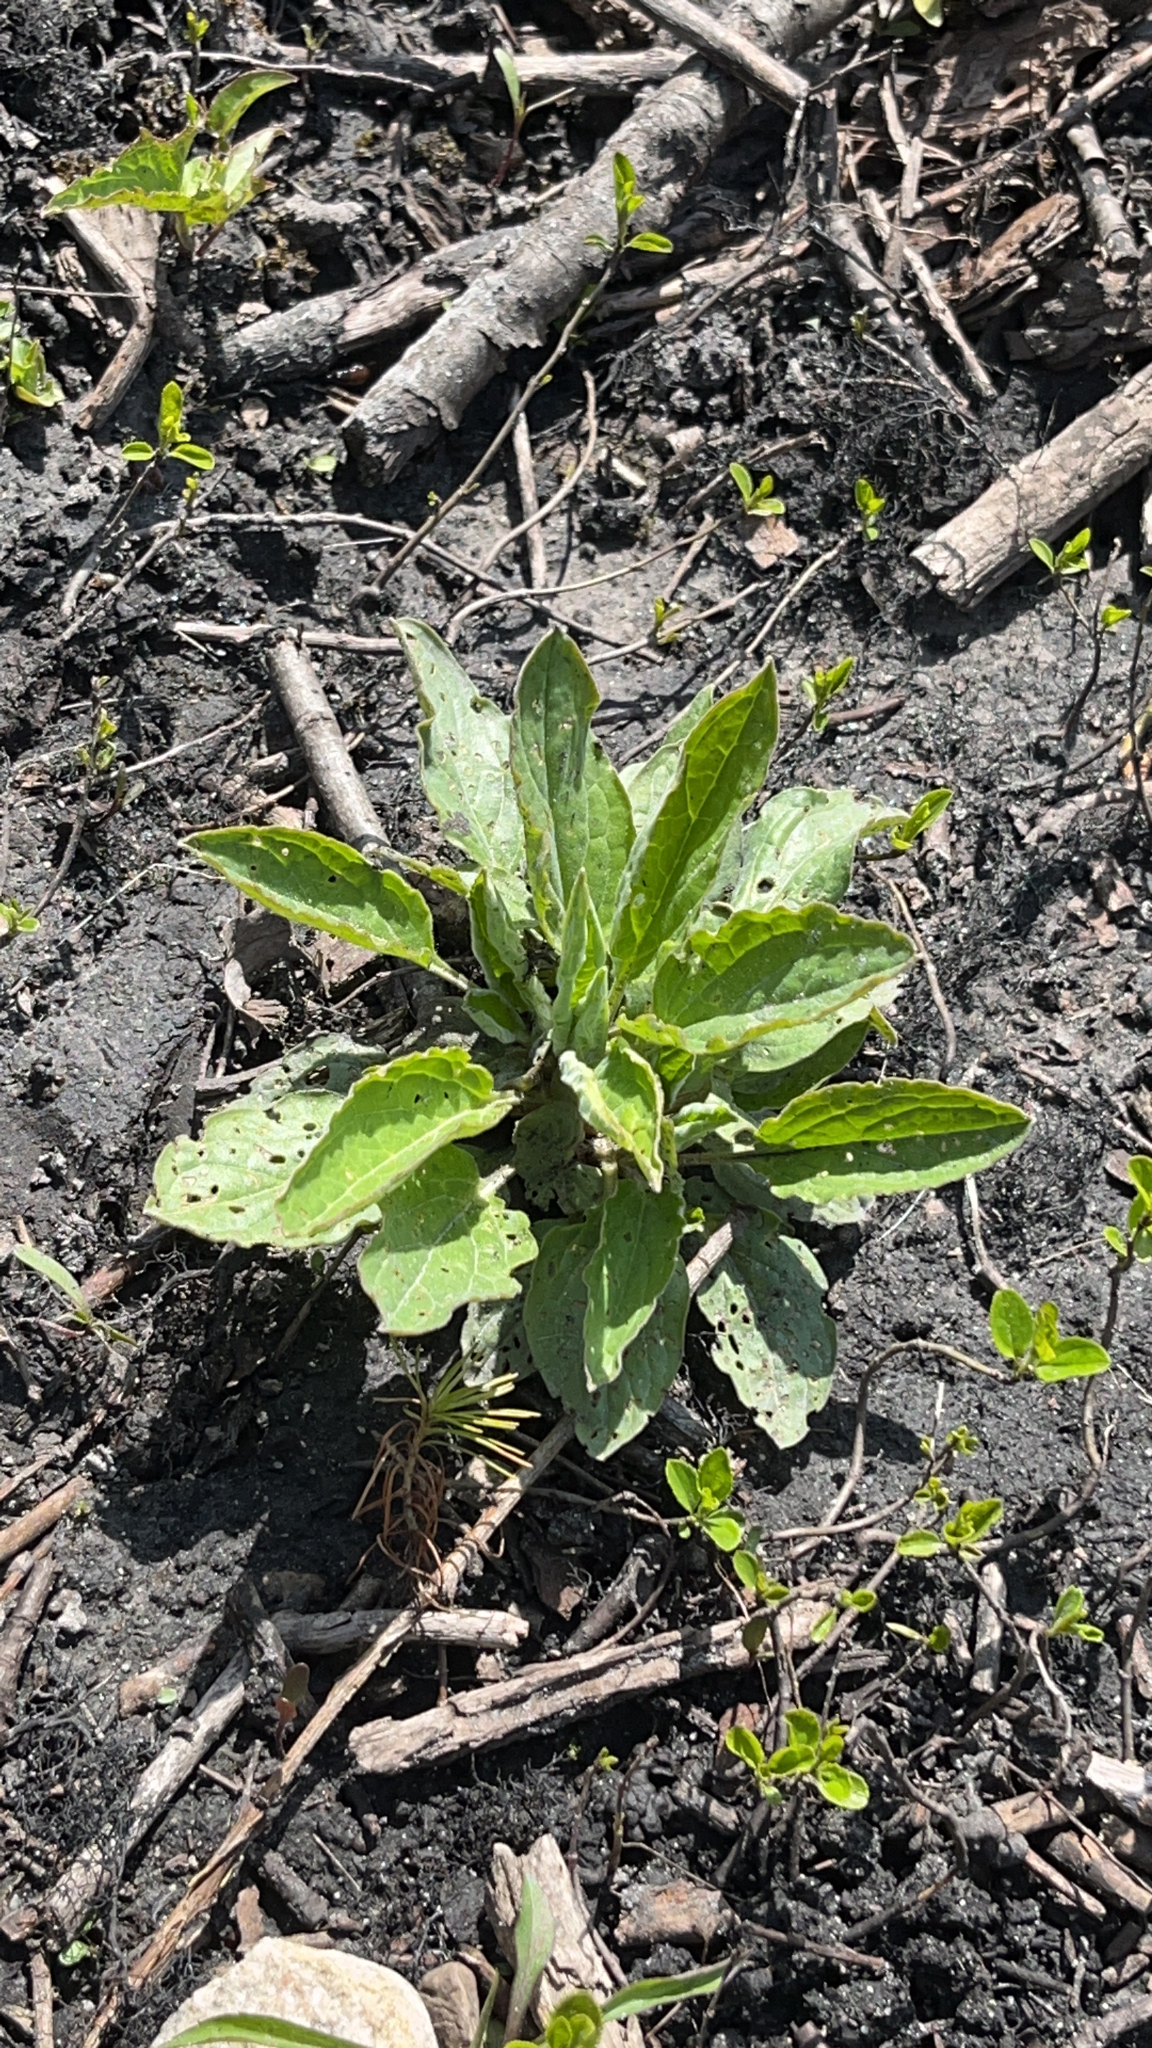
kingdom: Plantae
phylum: Tracheophyta
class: Magnoliopsida
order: Boraginales
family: Boraginaceae
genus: Hackelia
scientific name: Hackelia virginiana
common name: Beggar's-lice
